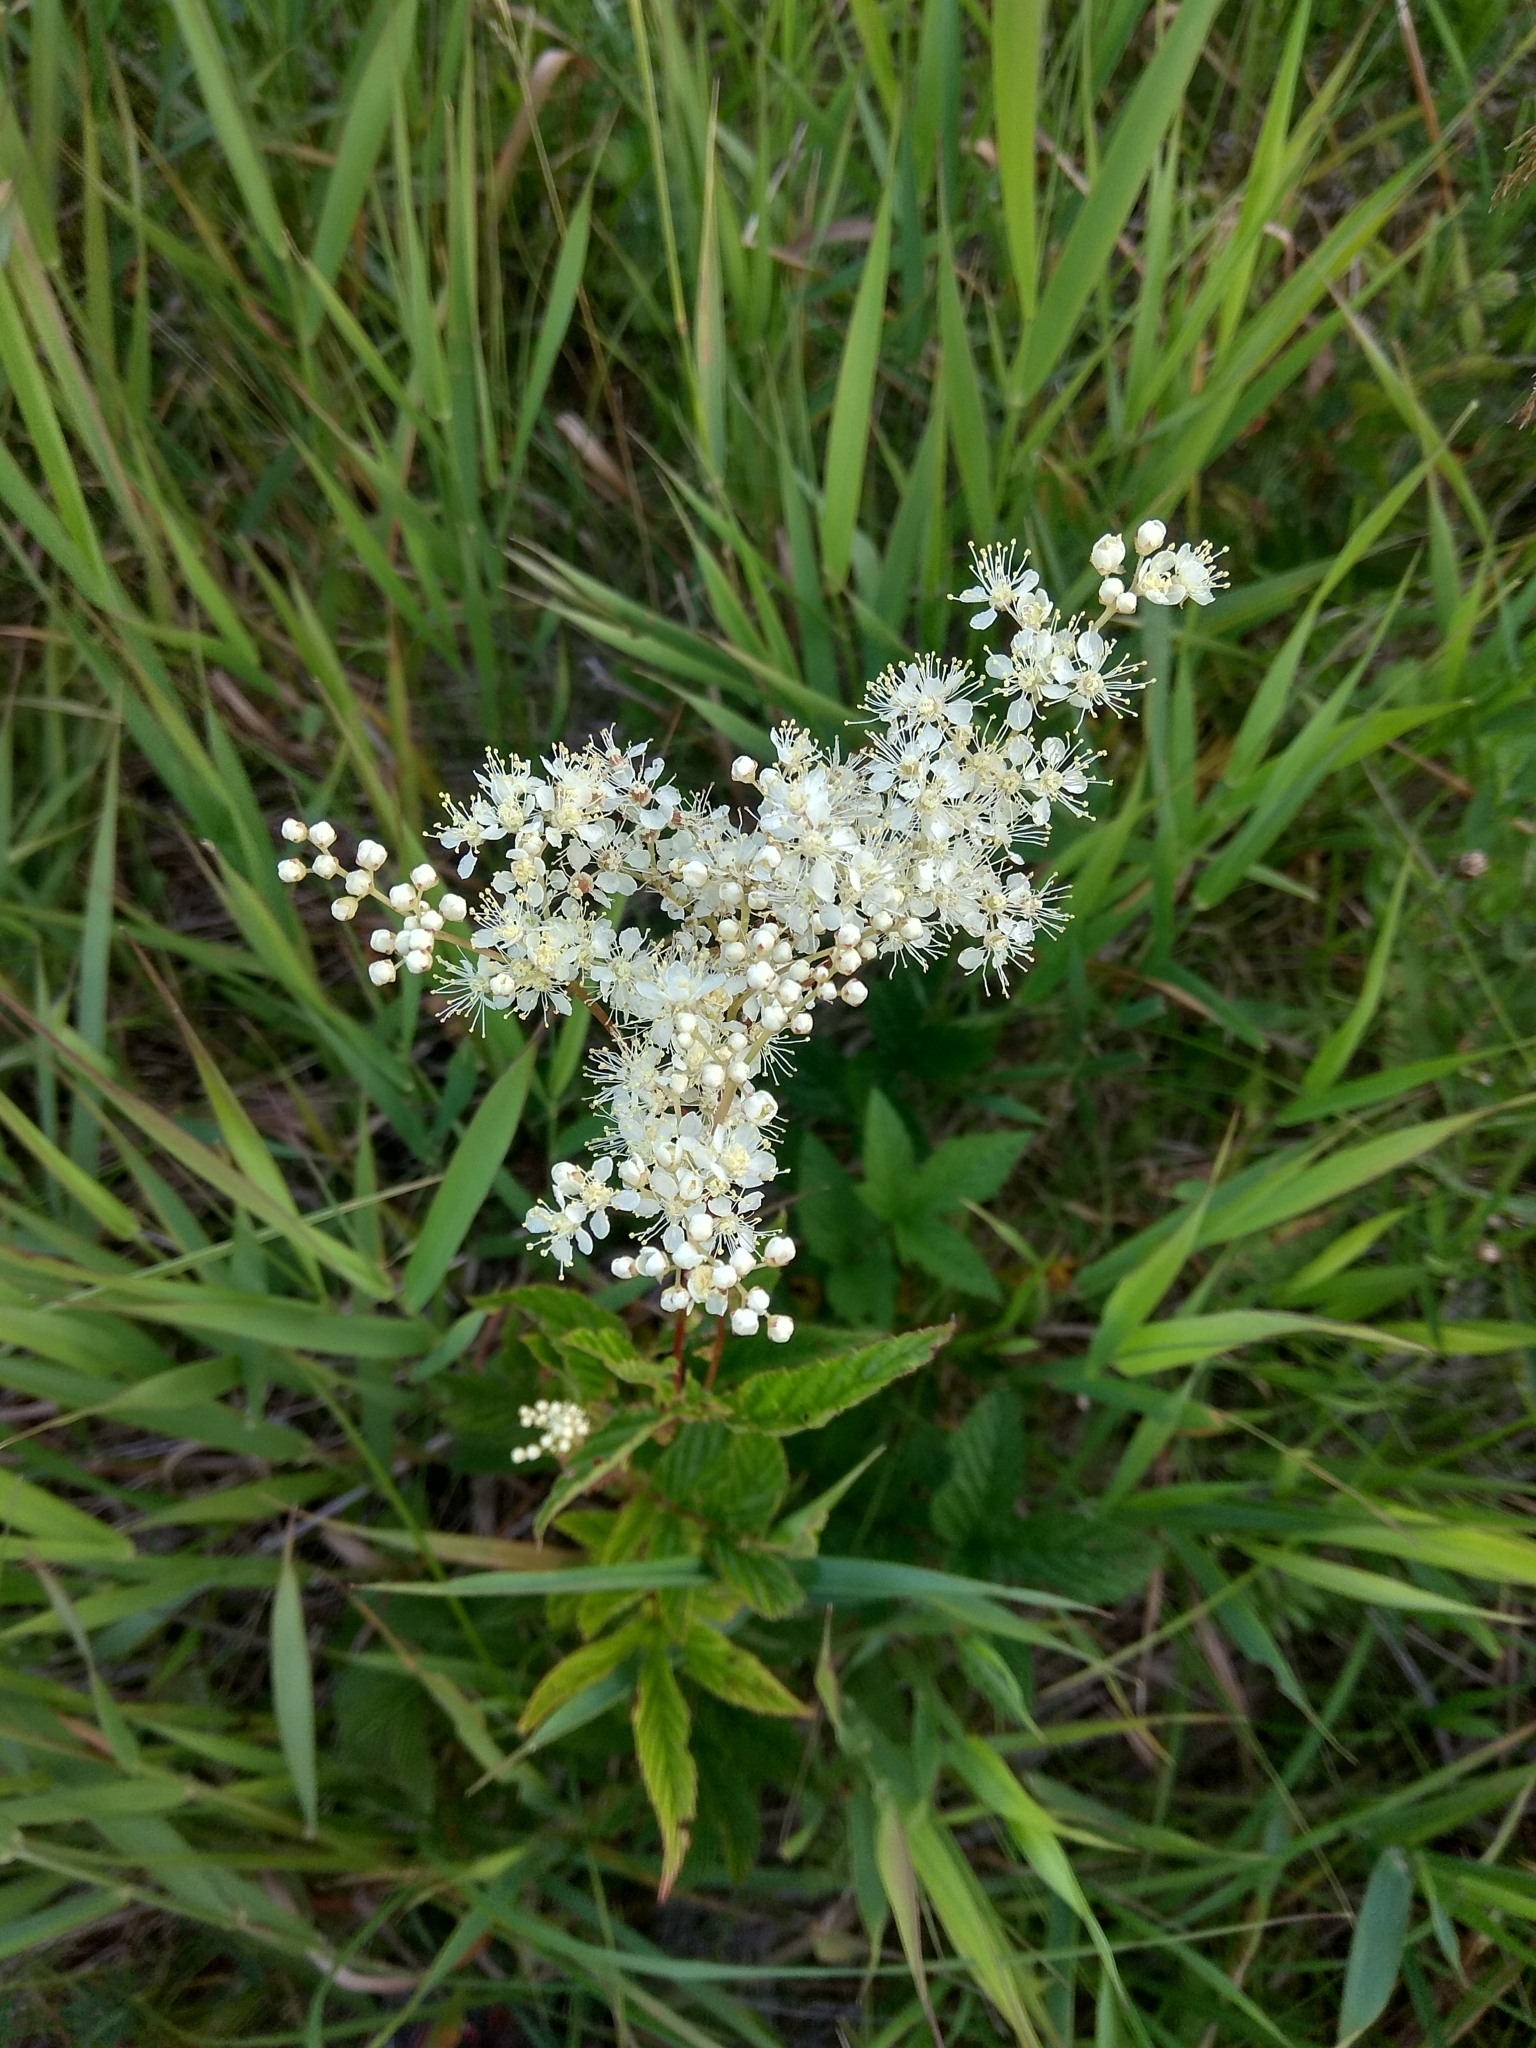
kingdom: Plantae
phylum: Tracheophyta
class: Magnoliopsida
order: Rosales
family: Rosaceae
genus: Filipendula
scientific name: Filipendula ulmaria
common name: Meadowsweet
